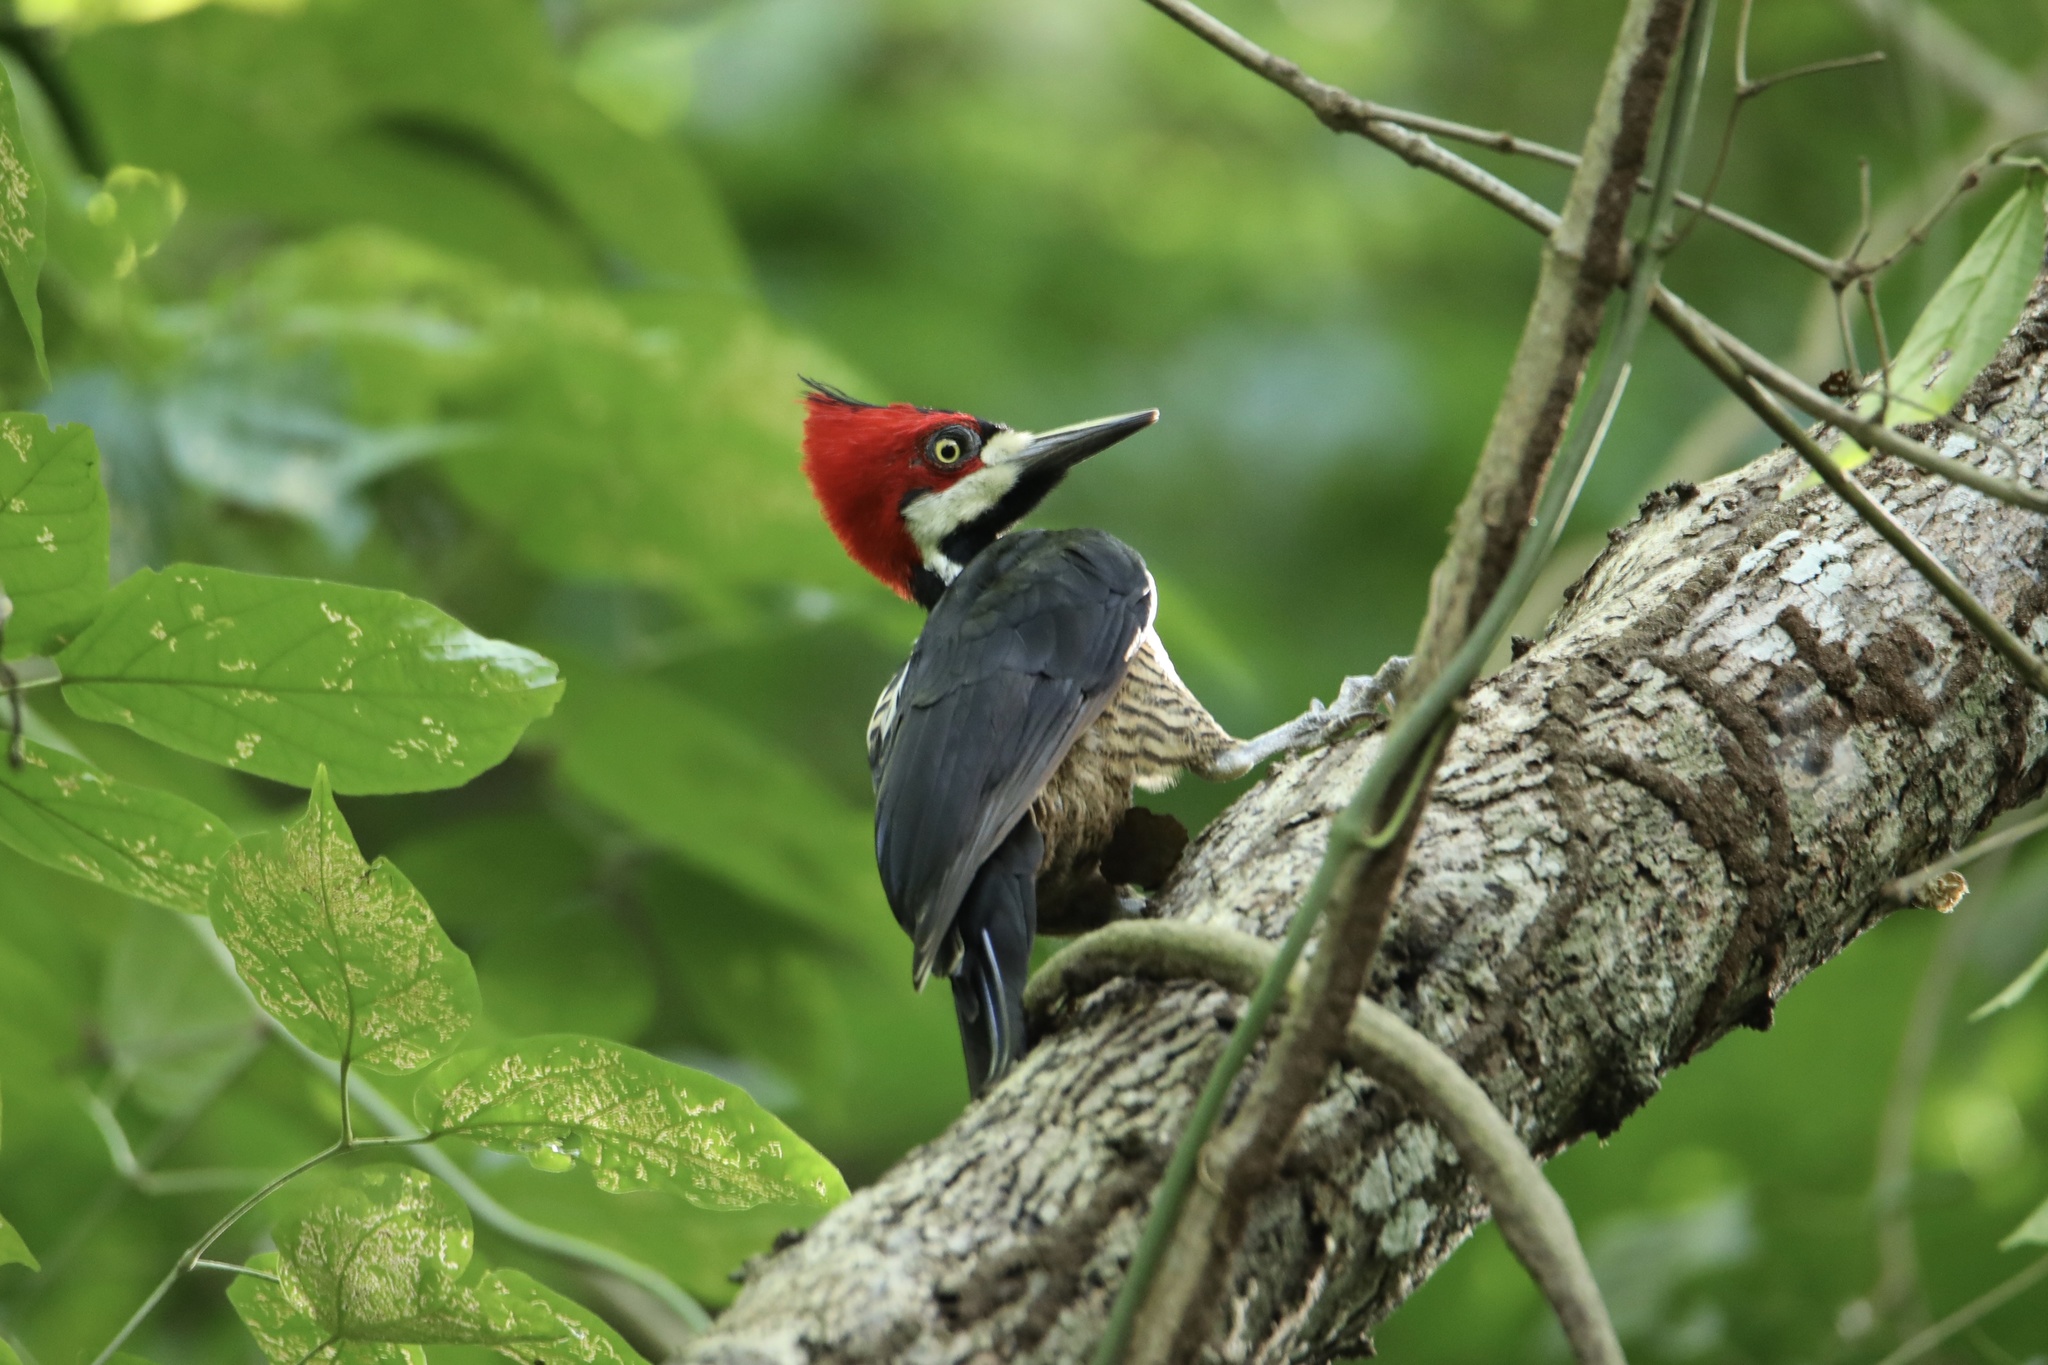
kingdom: Animalia
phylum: Chordata
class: Aves
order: Piciformes
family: Picidae
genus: Campephilus
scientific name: Campephilus melanoleucos
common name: Crimson-crested woodpecker
